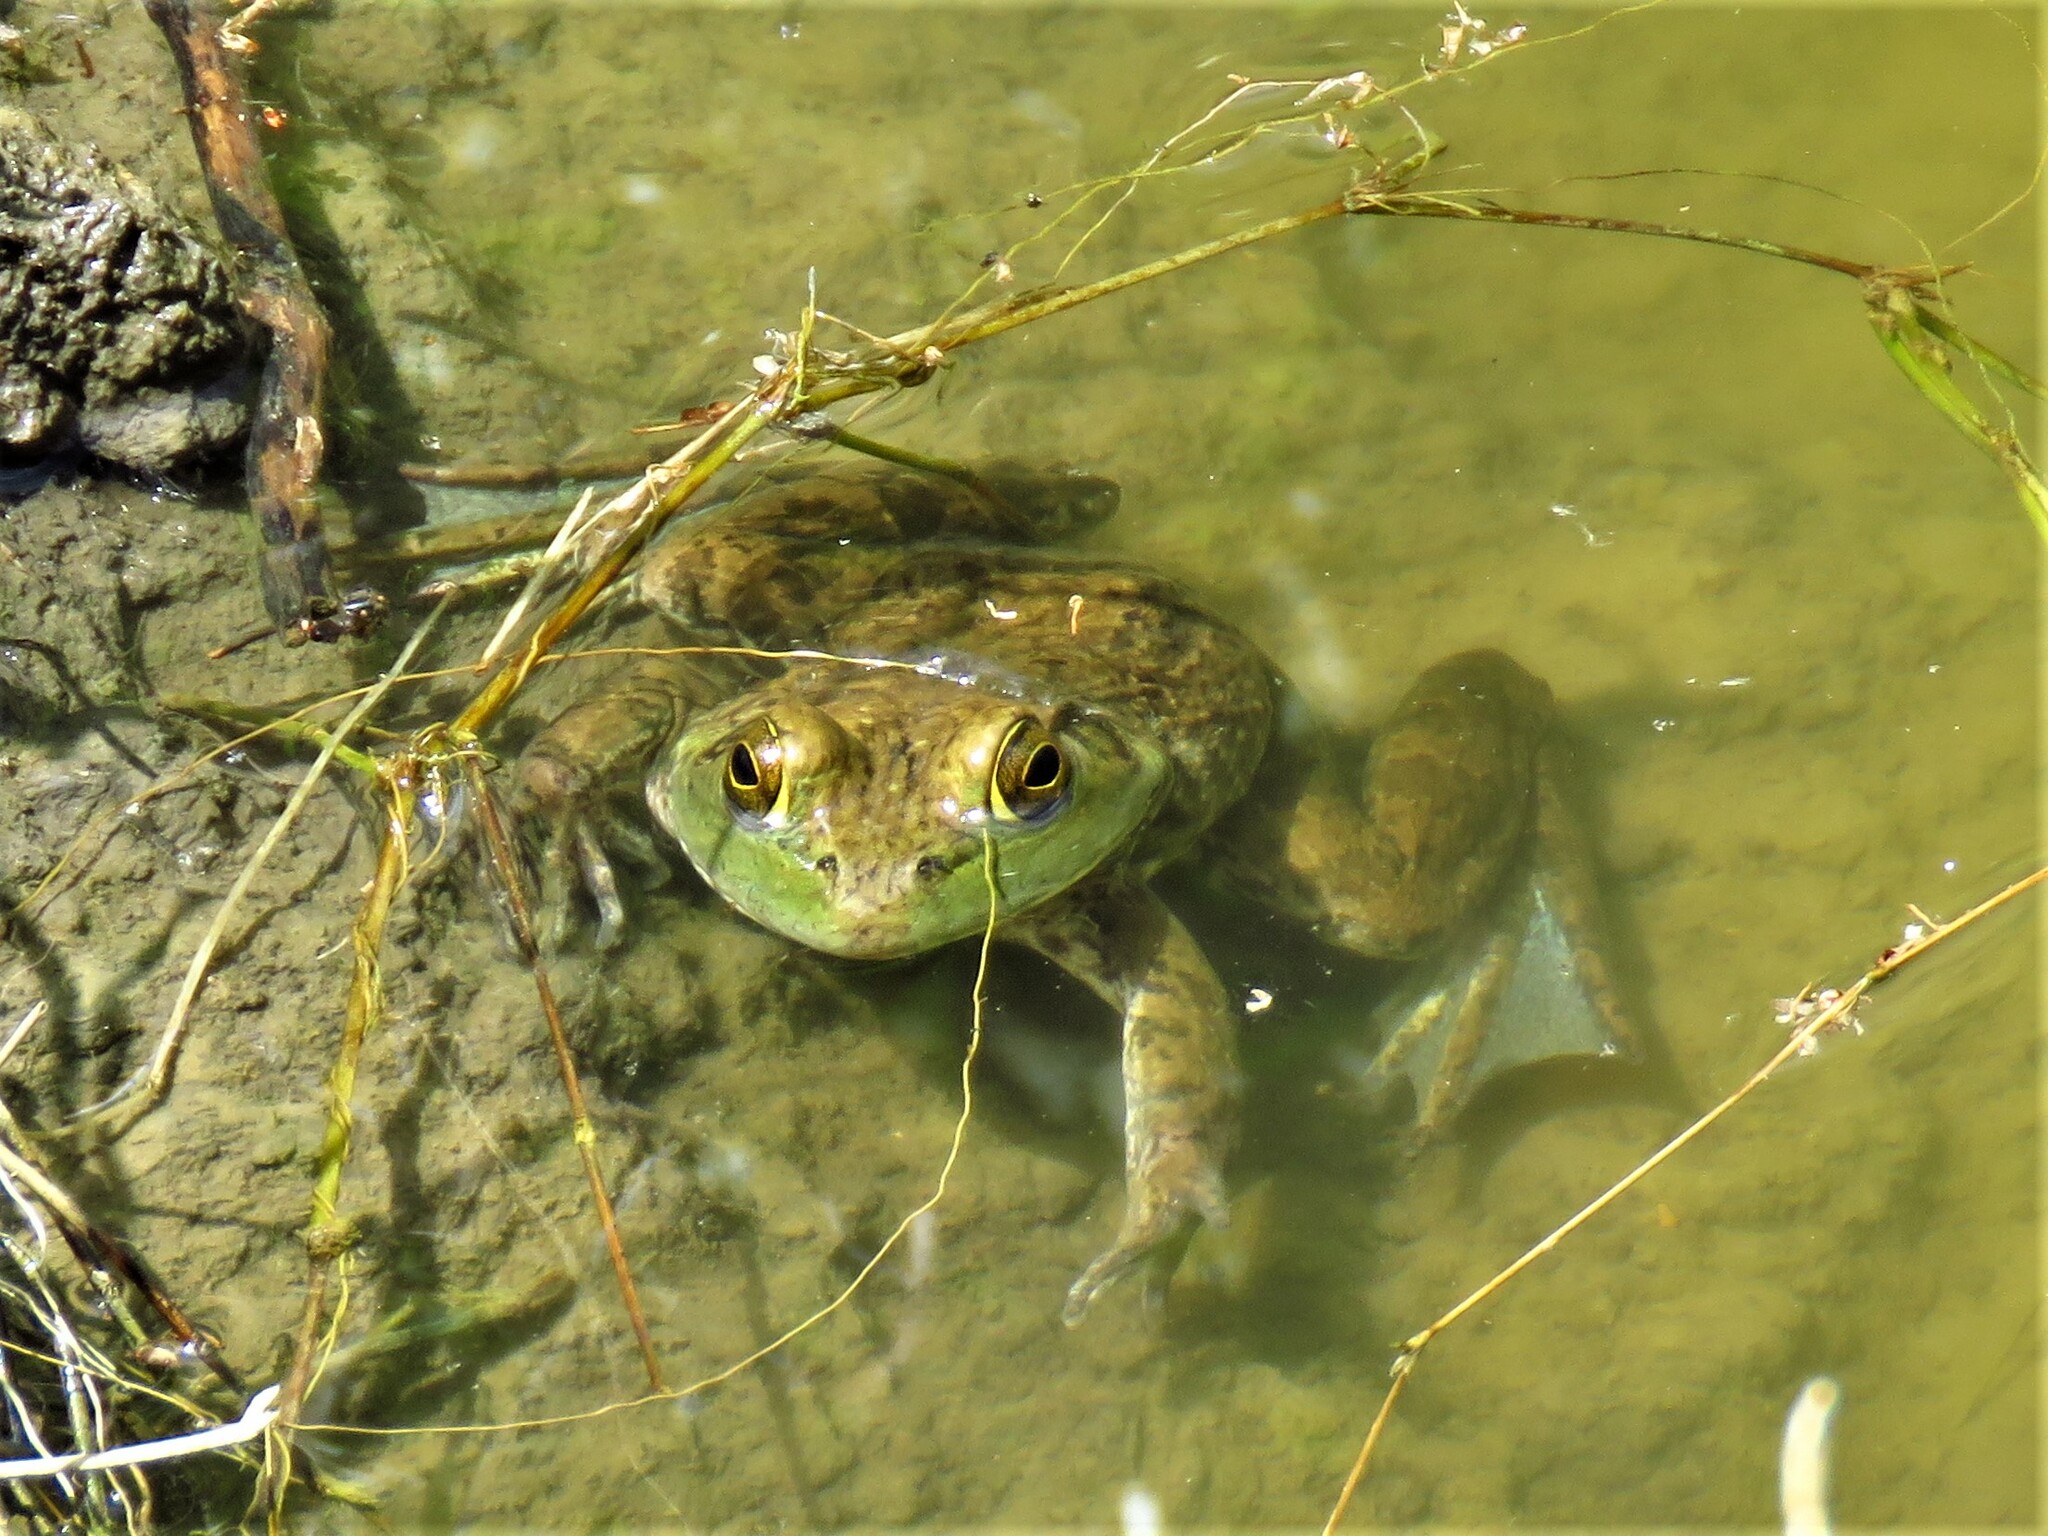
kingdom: Animalia
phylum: Chordata
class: Amphibia
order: Anura
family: Ranidae
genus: Lithobates
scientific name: Lithobates catesbeianus
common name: American bullfrog
